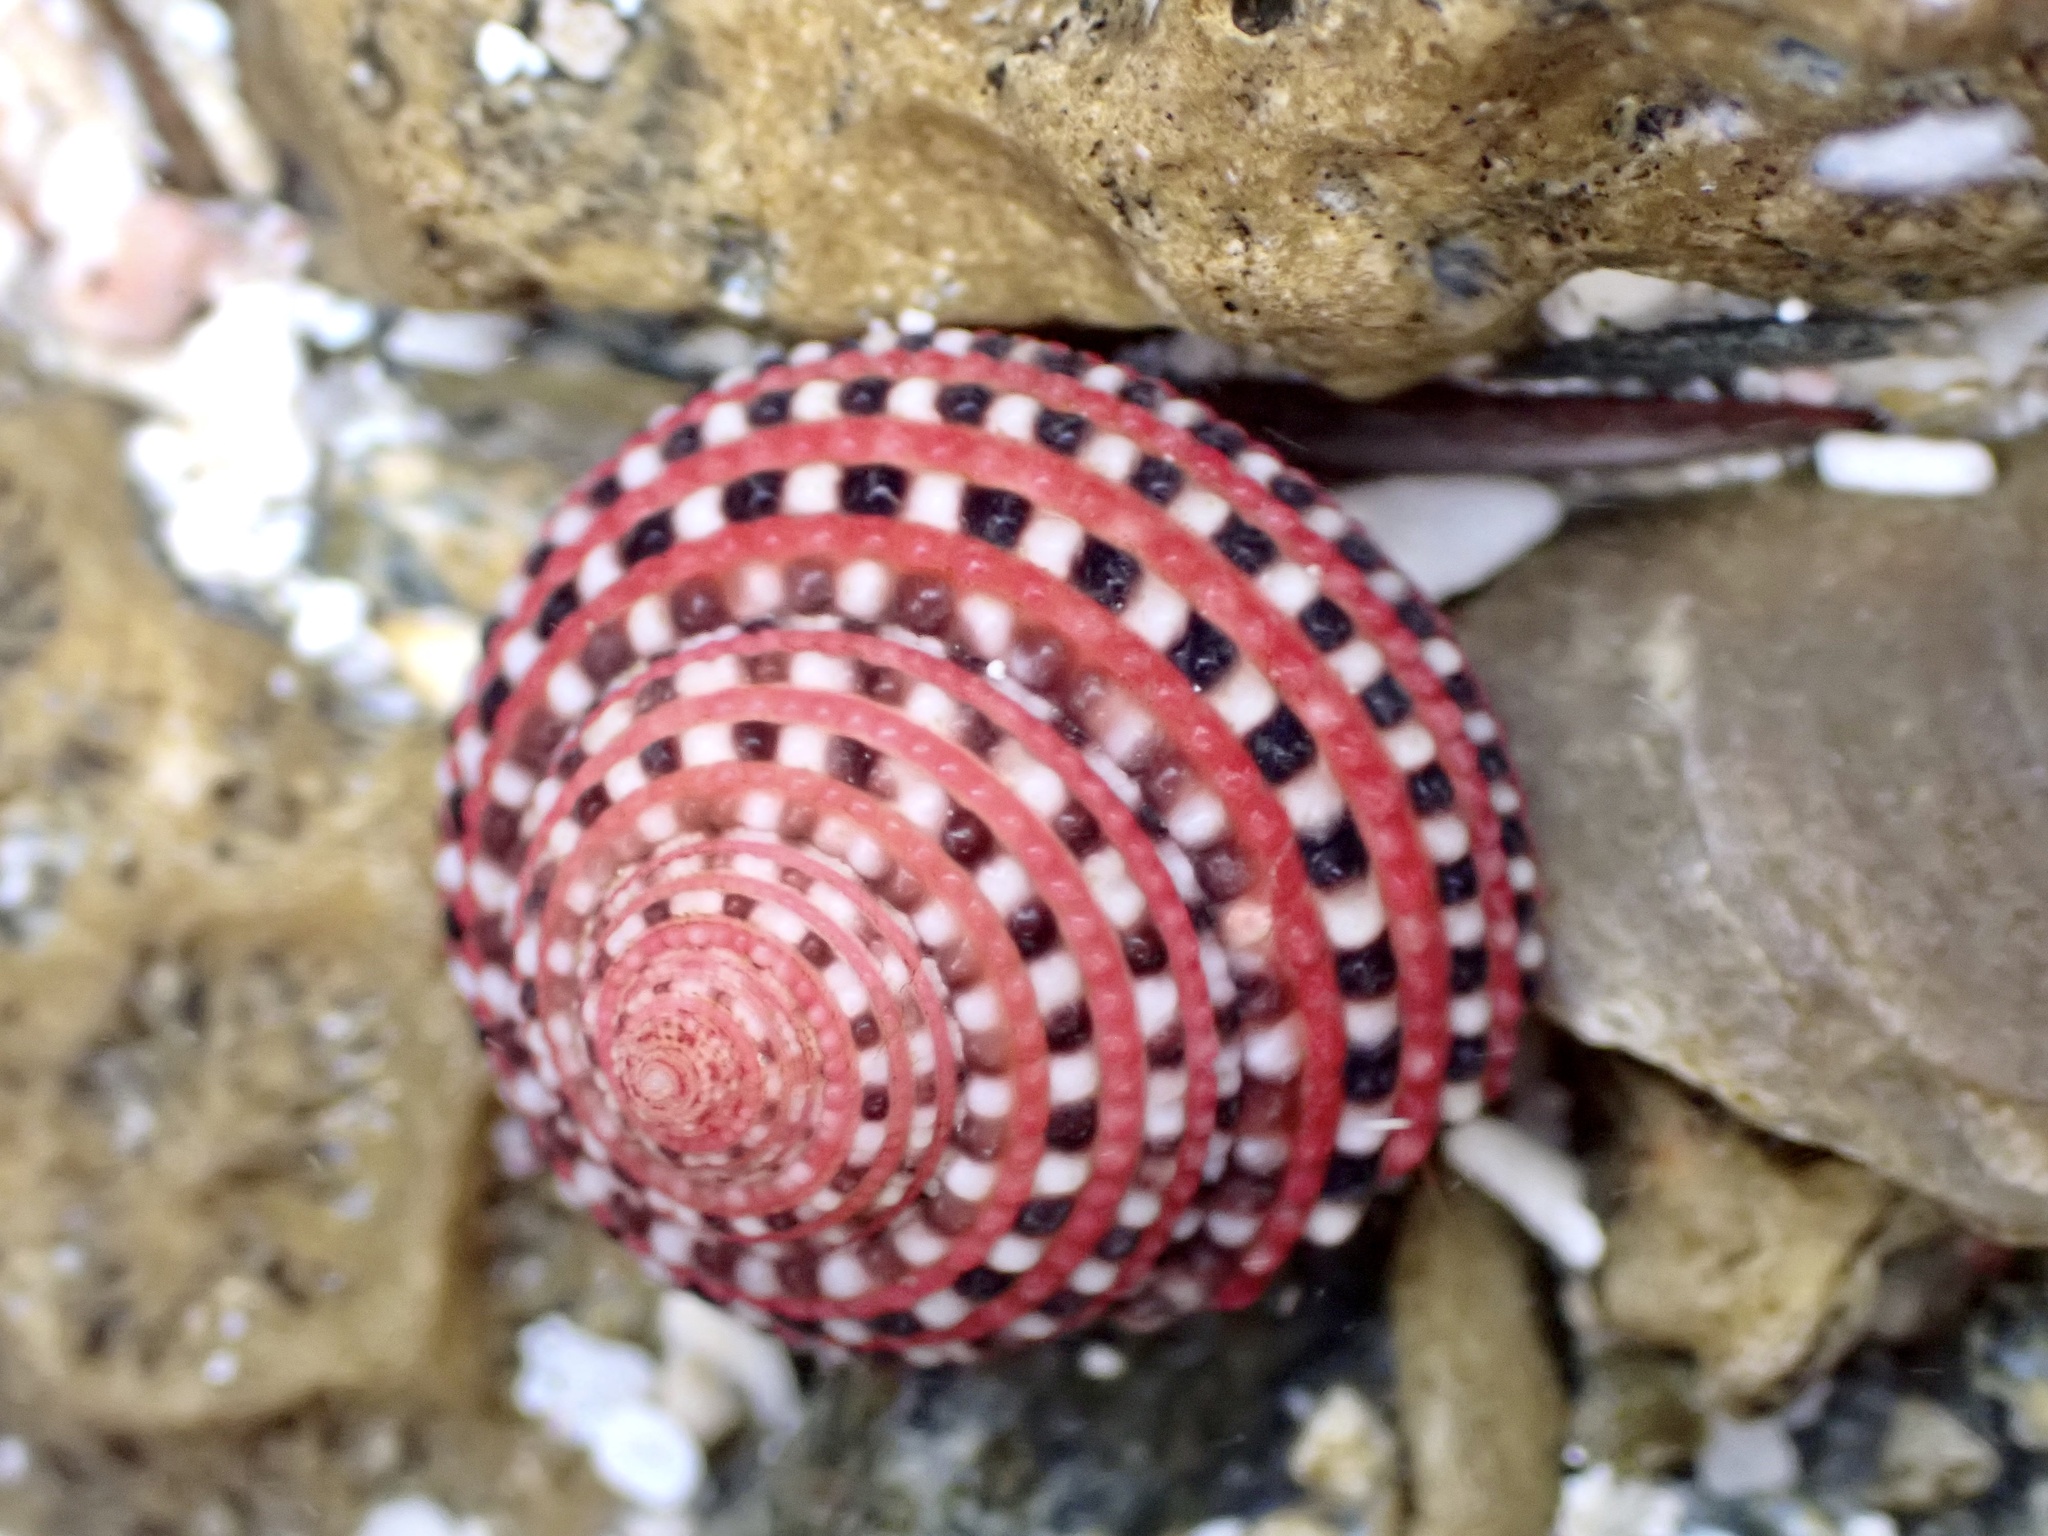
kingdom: Animalia
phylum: Mollusca
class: Gastropoda
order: Trochida
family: Trochidae
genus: Clanculus
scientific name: Clanculus pharaonius
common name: Strawberry top
